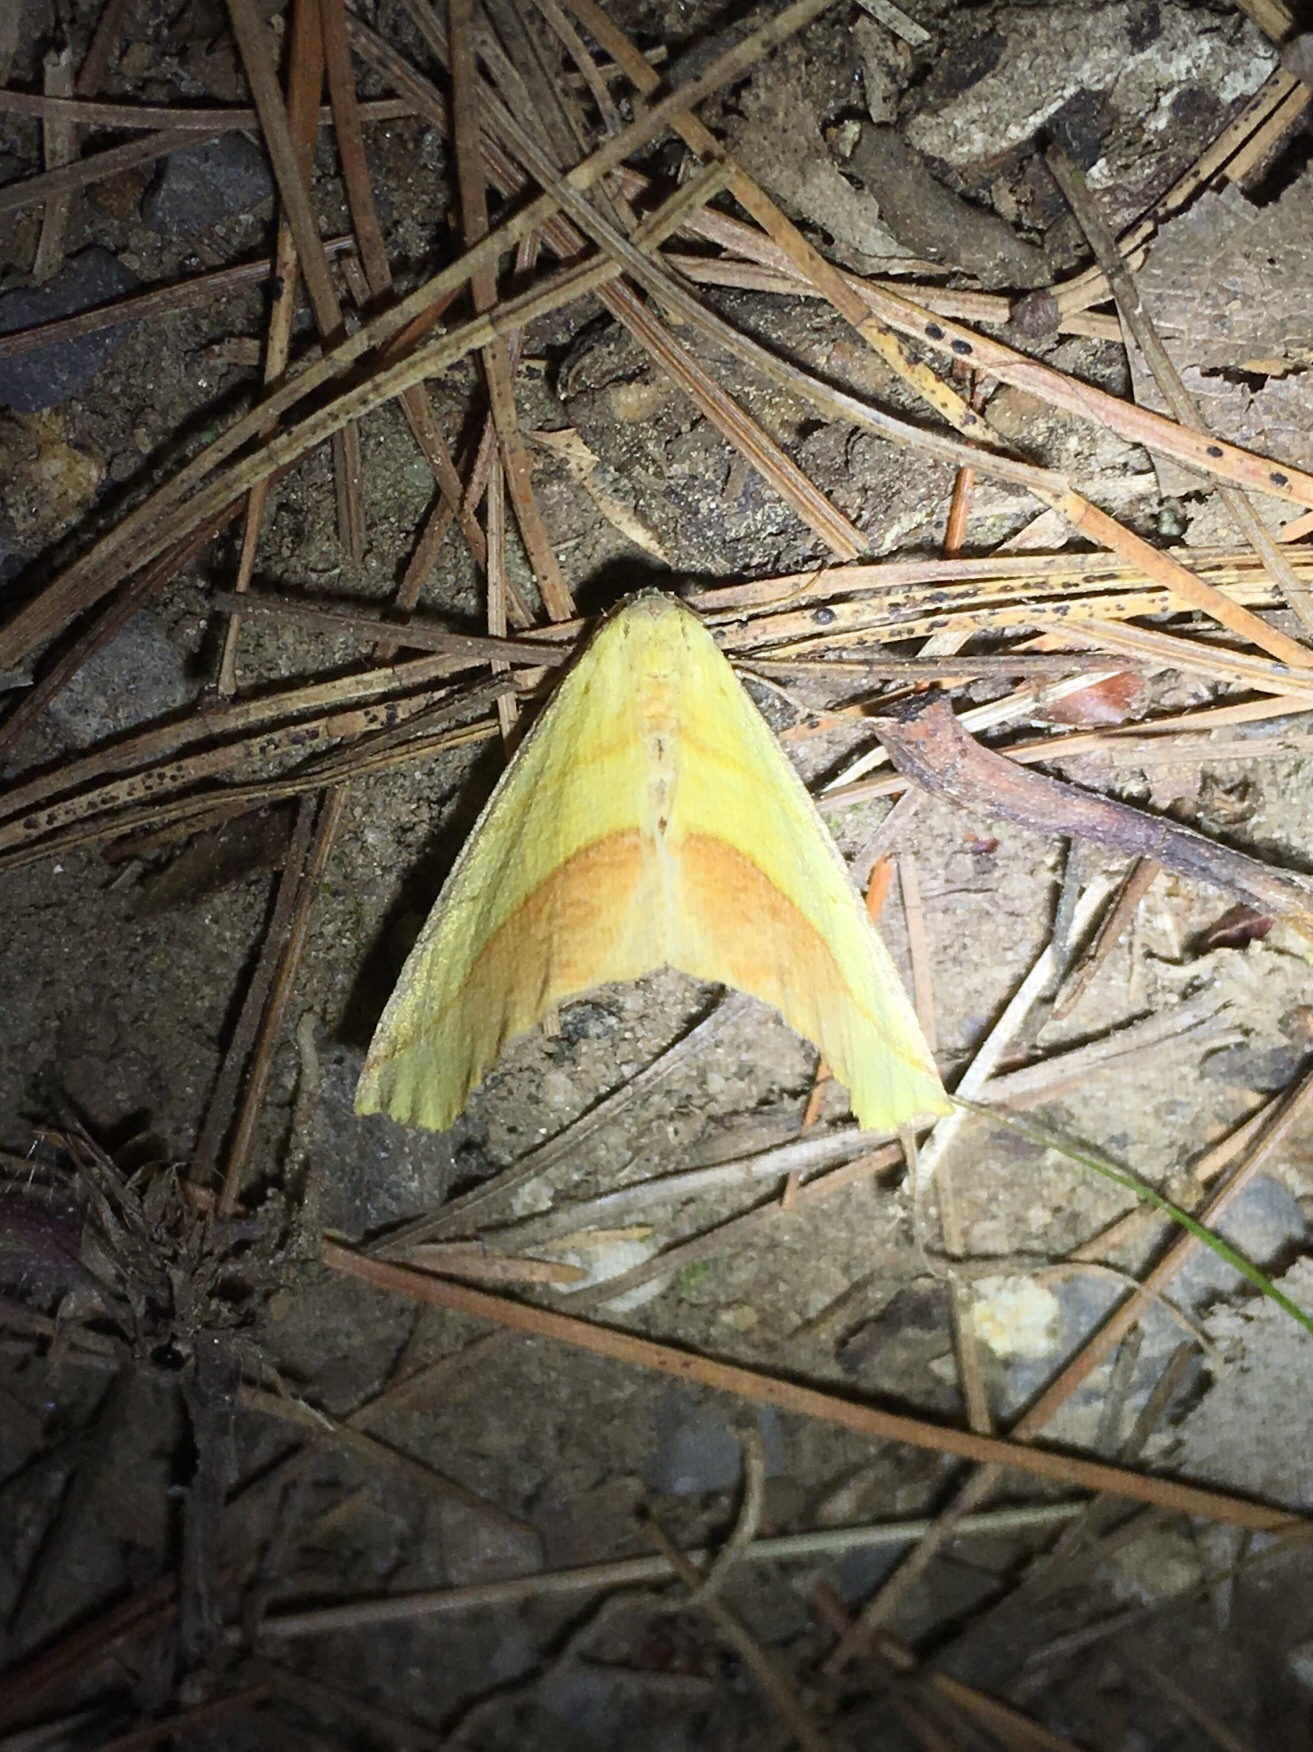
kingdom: Animalia
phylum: Arthropoda
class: Insecta
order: Lepidoptera
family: Geometridae
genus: Sicya
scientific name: Sicya macularia
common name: Sharp-lined yellow
